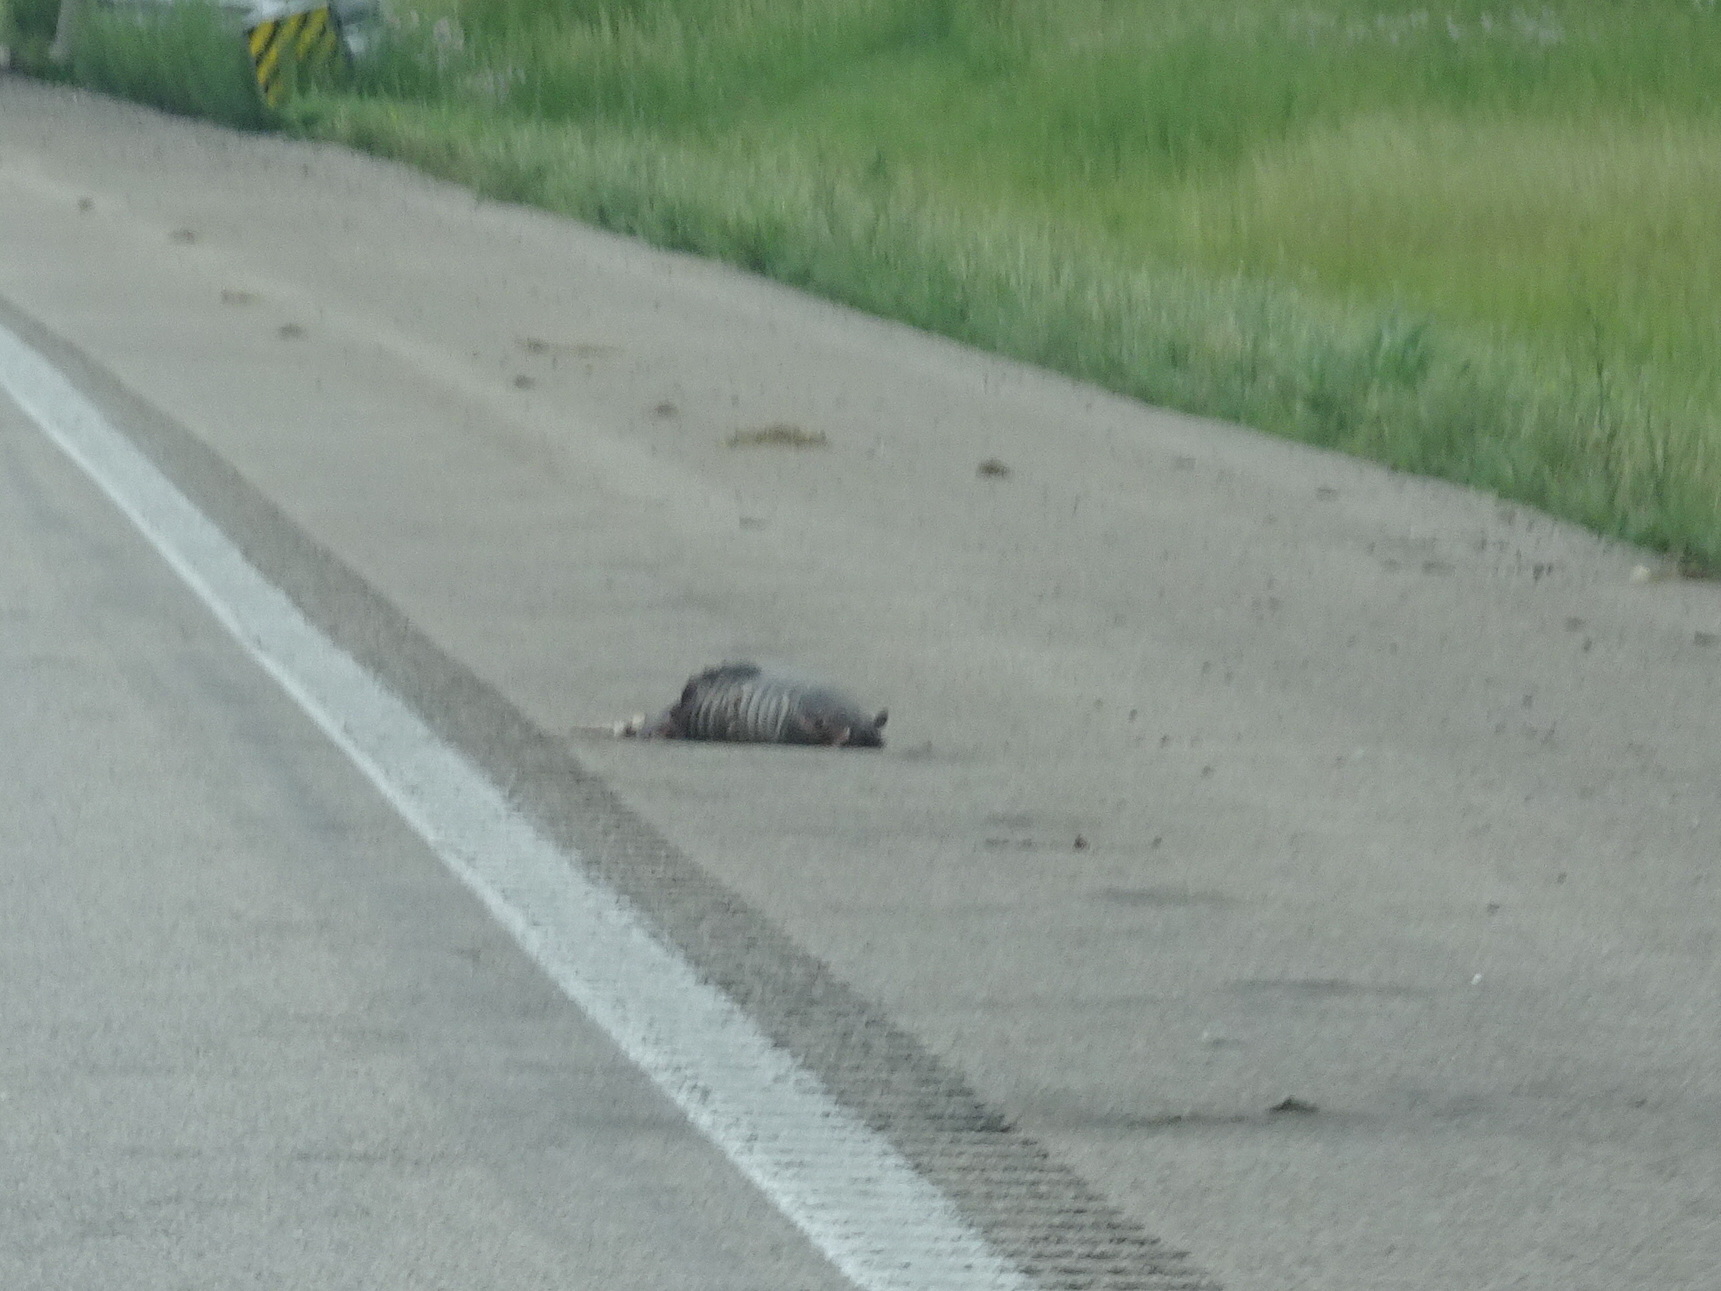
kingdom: Animalia
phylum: Chordata
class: Mammalia
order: Cingulata
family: Dasypodidae
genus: Dasypus
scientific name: Dasypus novemcinctus
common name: Nine-banded armadillo
